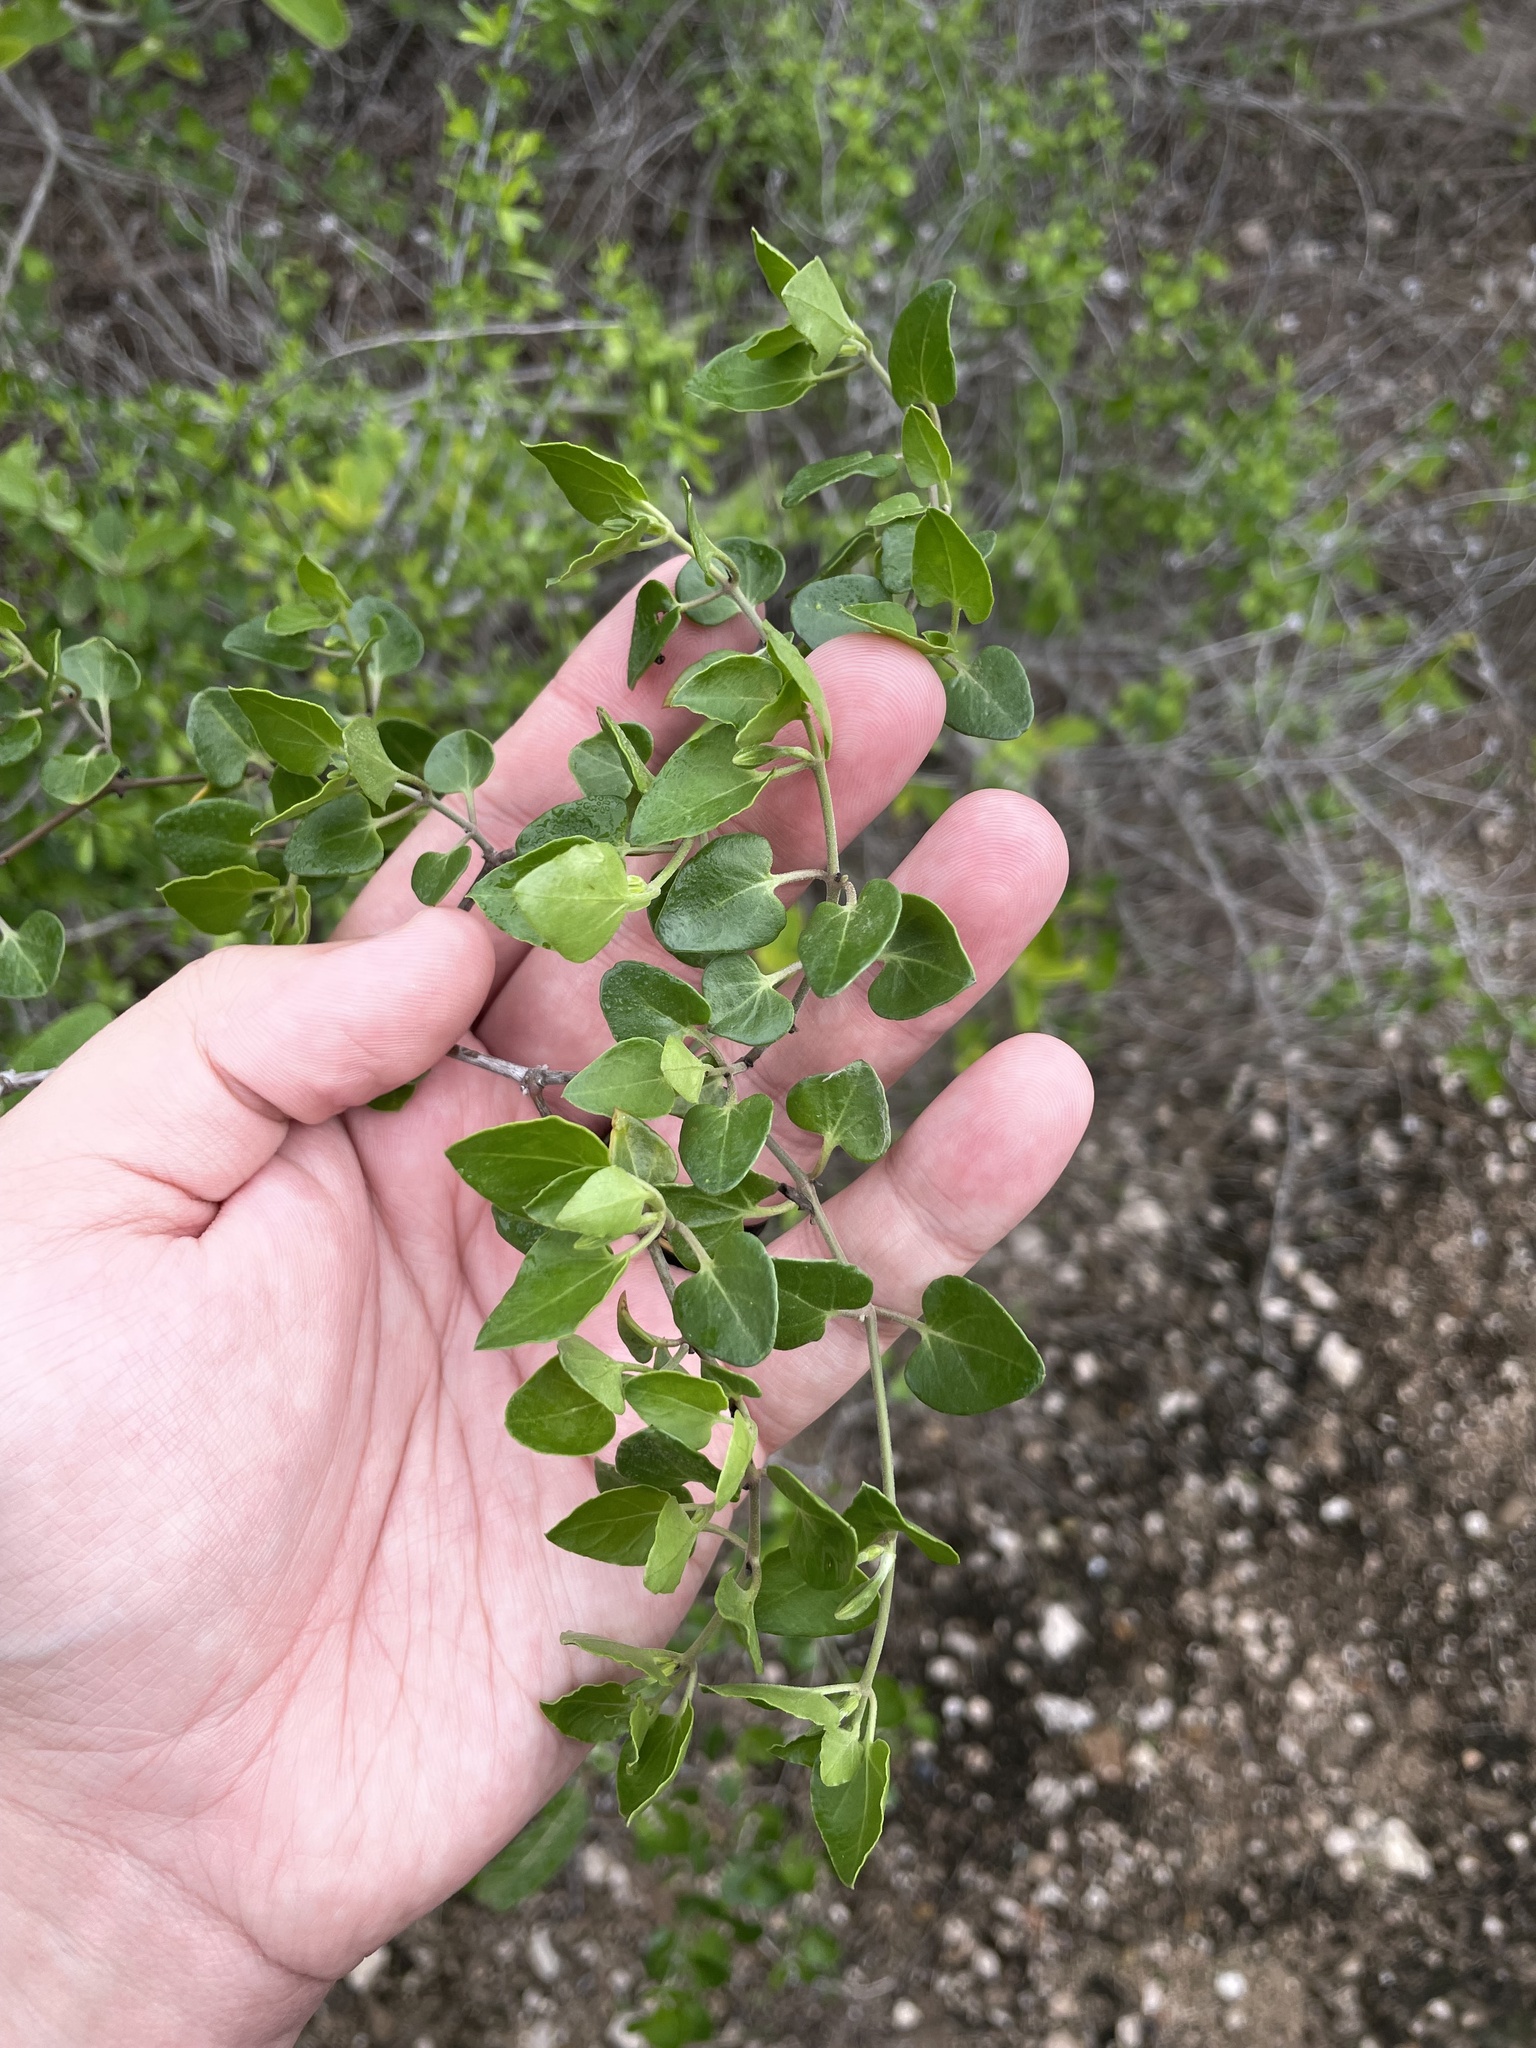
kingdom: Plantae
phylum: Tracheophyta
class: Magnoliopsida
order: Caryophyllales
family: Nyctaginaceae
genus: Acleisanthes
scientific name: Acleisanthes obtusa
